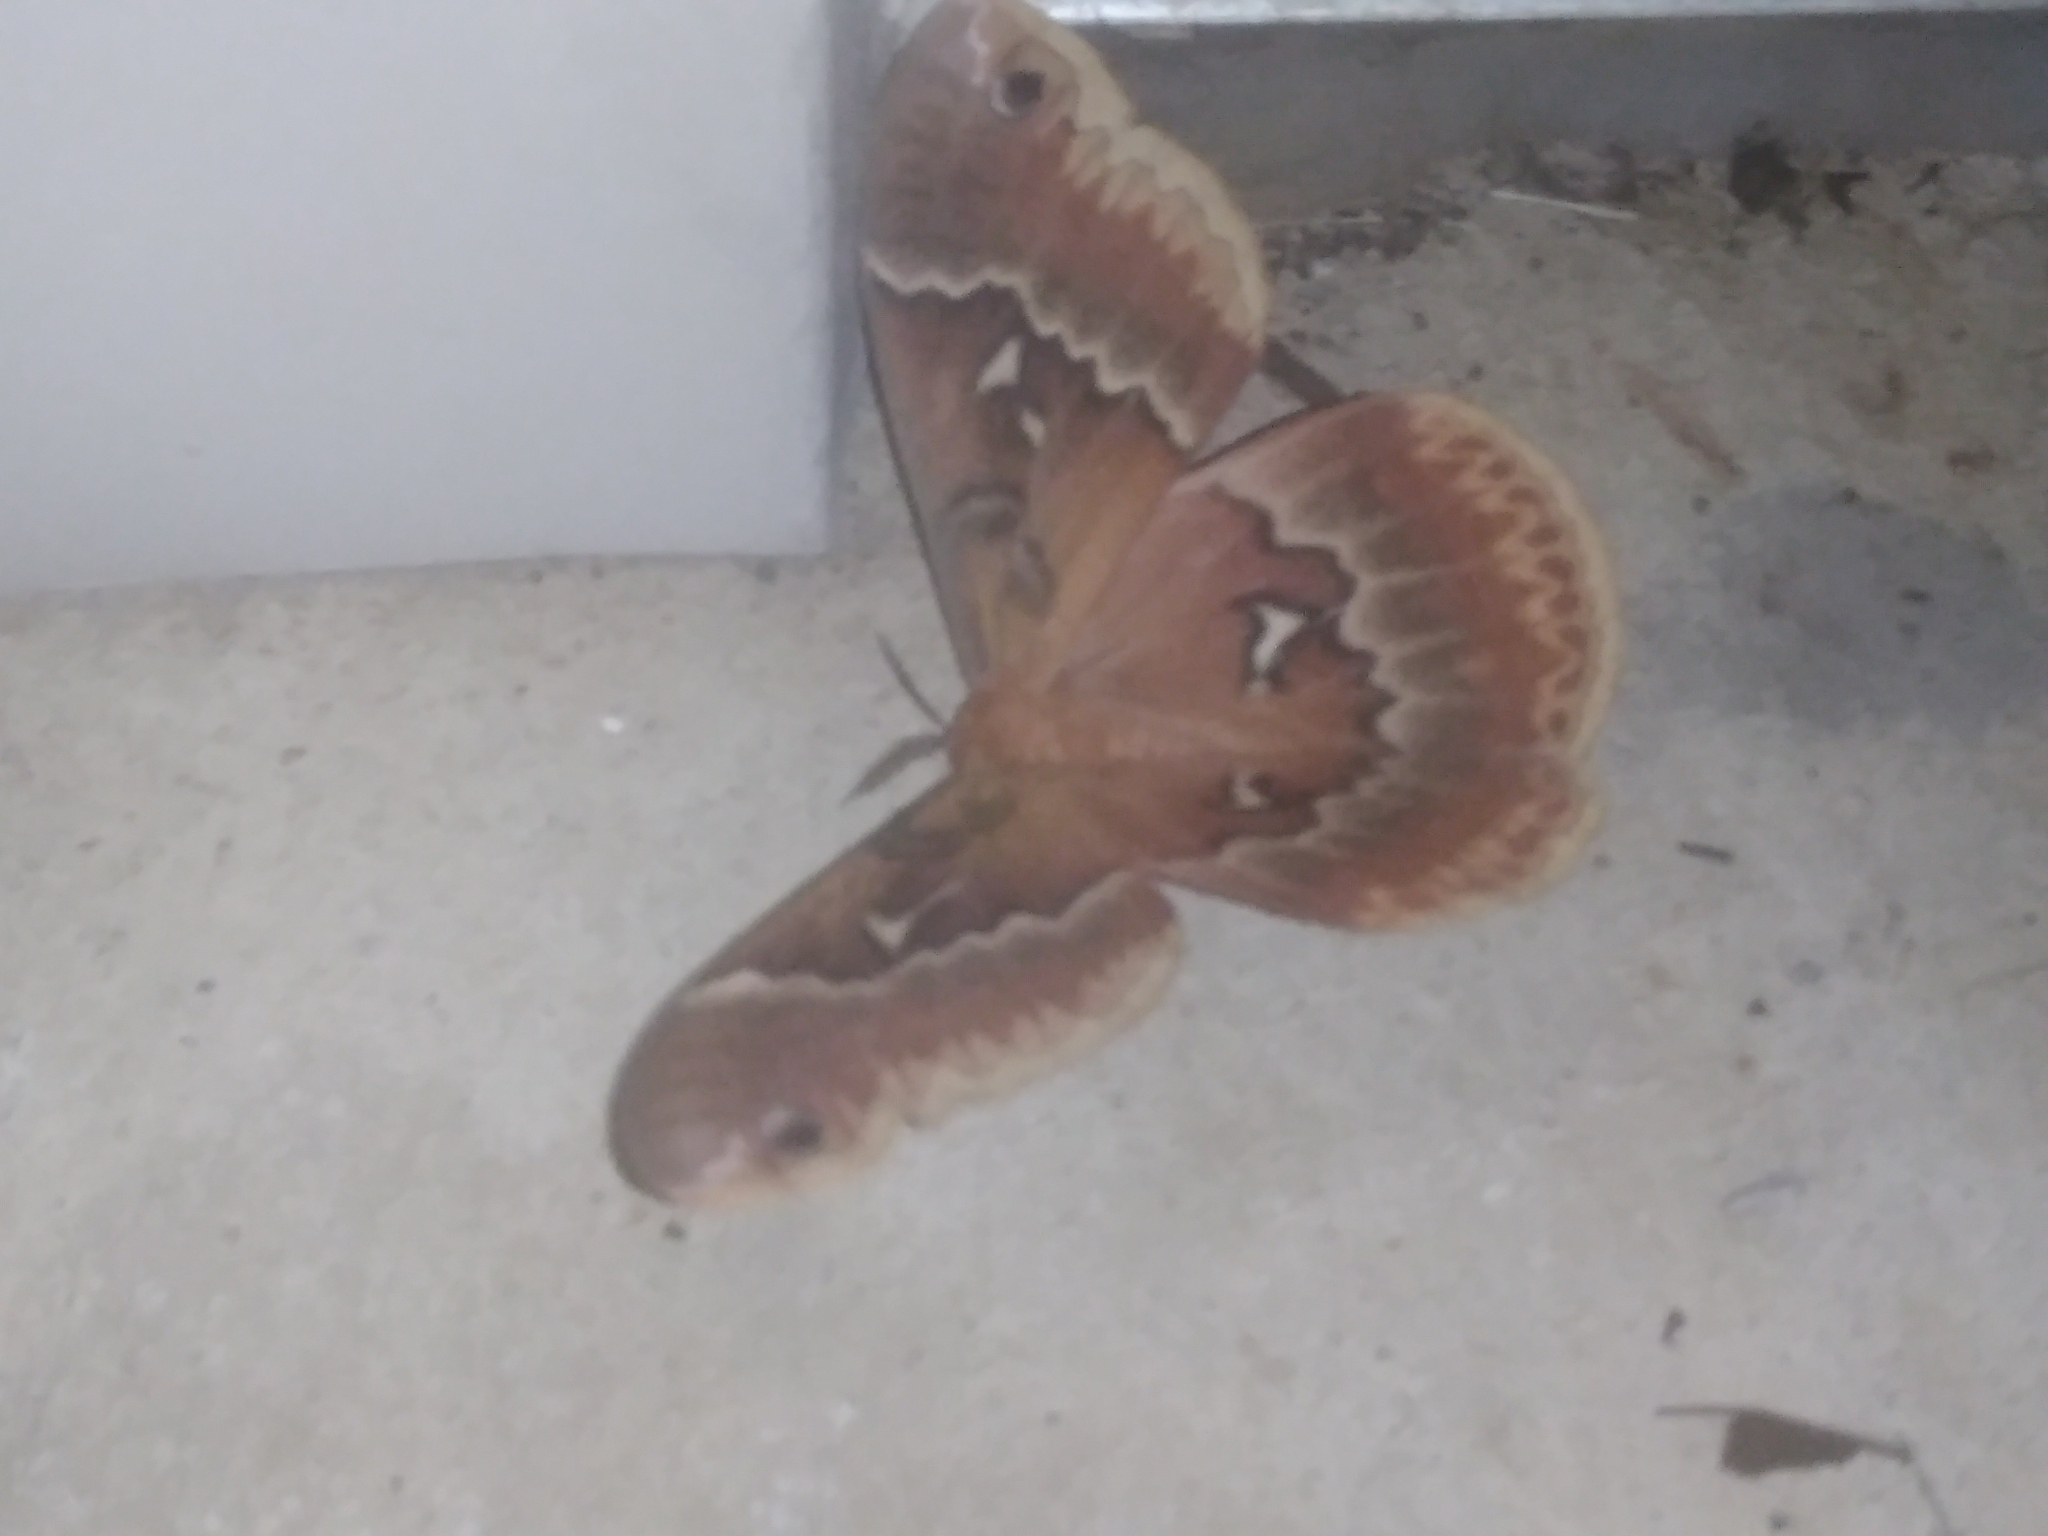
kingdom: Animalia
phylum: Arthropoda
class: Insecta
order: Lepidoptera
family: Saturniidae
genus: Callosamia
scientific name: Callosamia angulifera
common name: Tulip tree silkmoth
